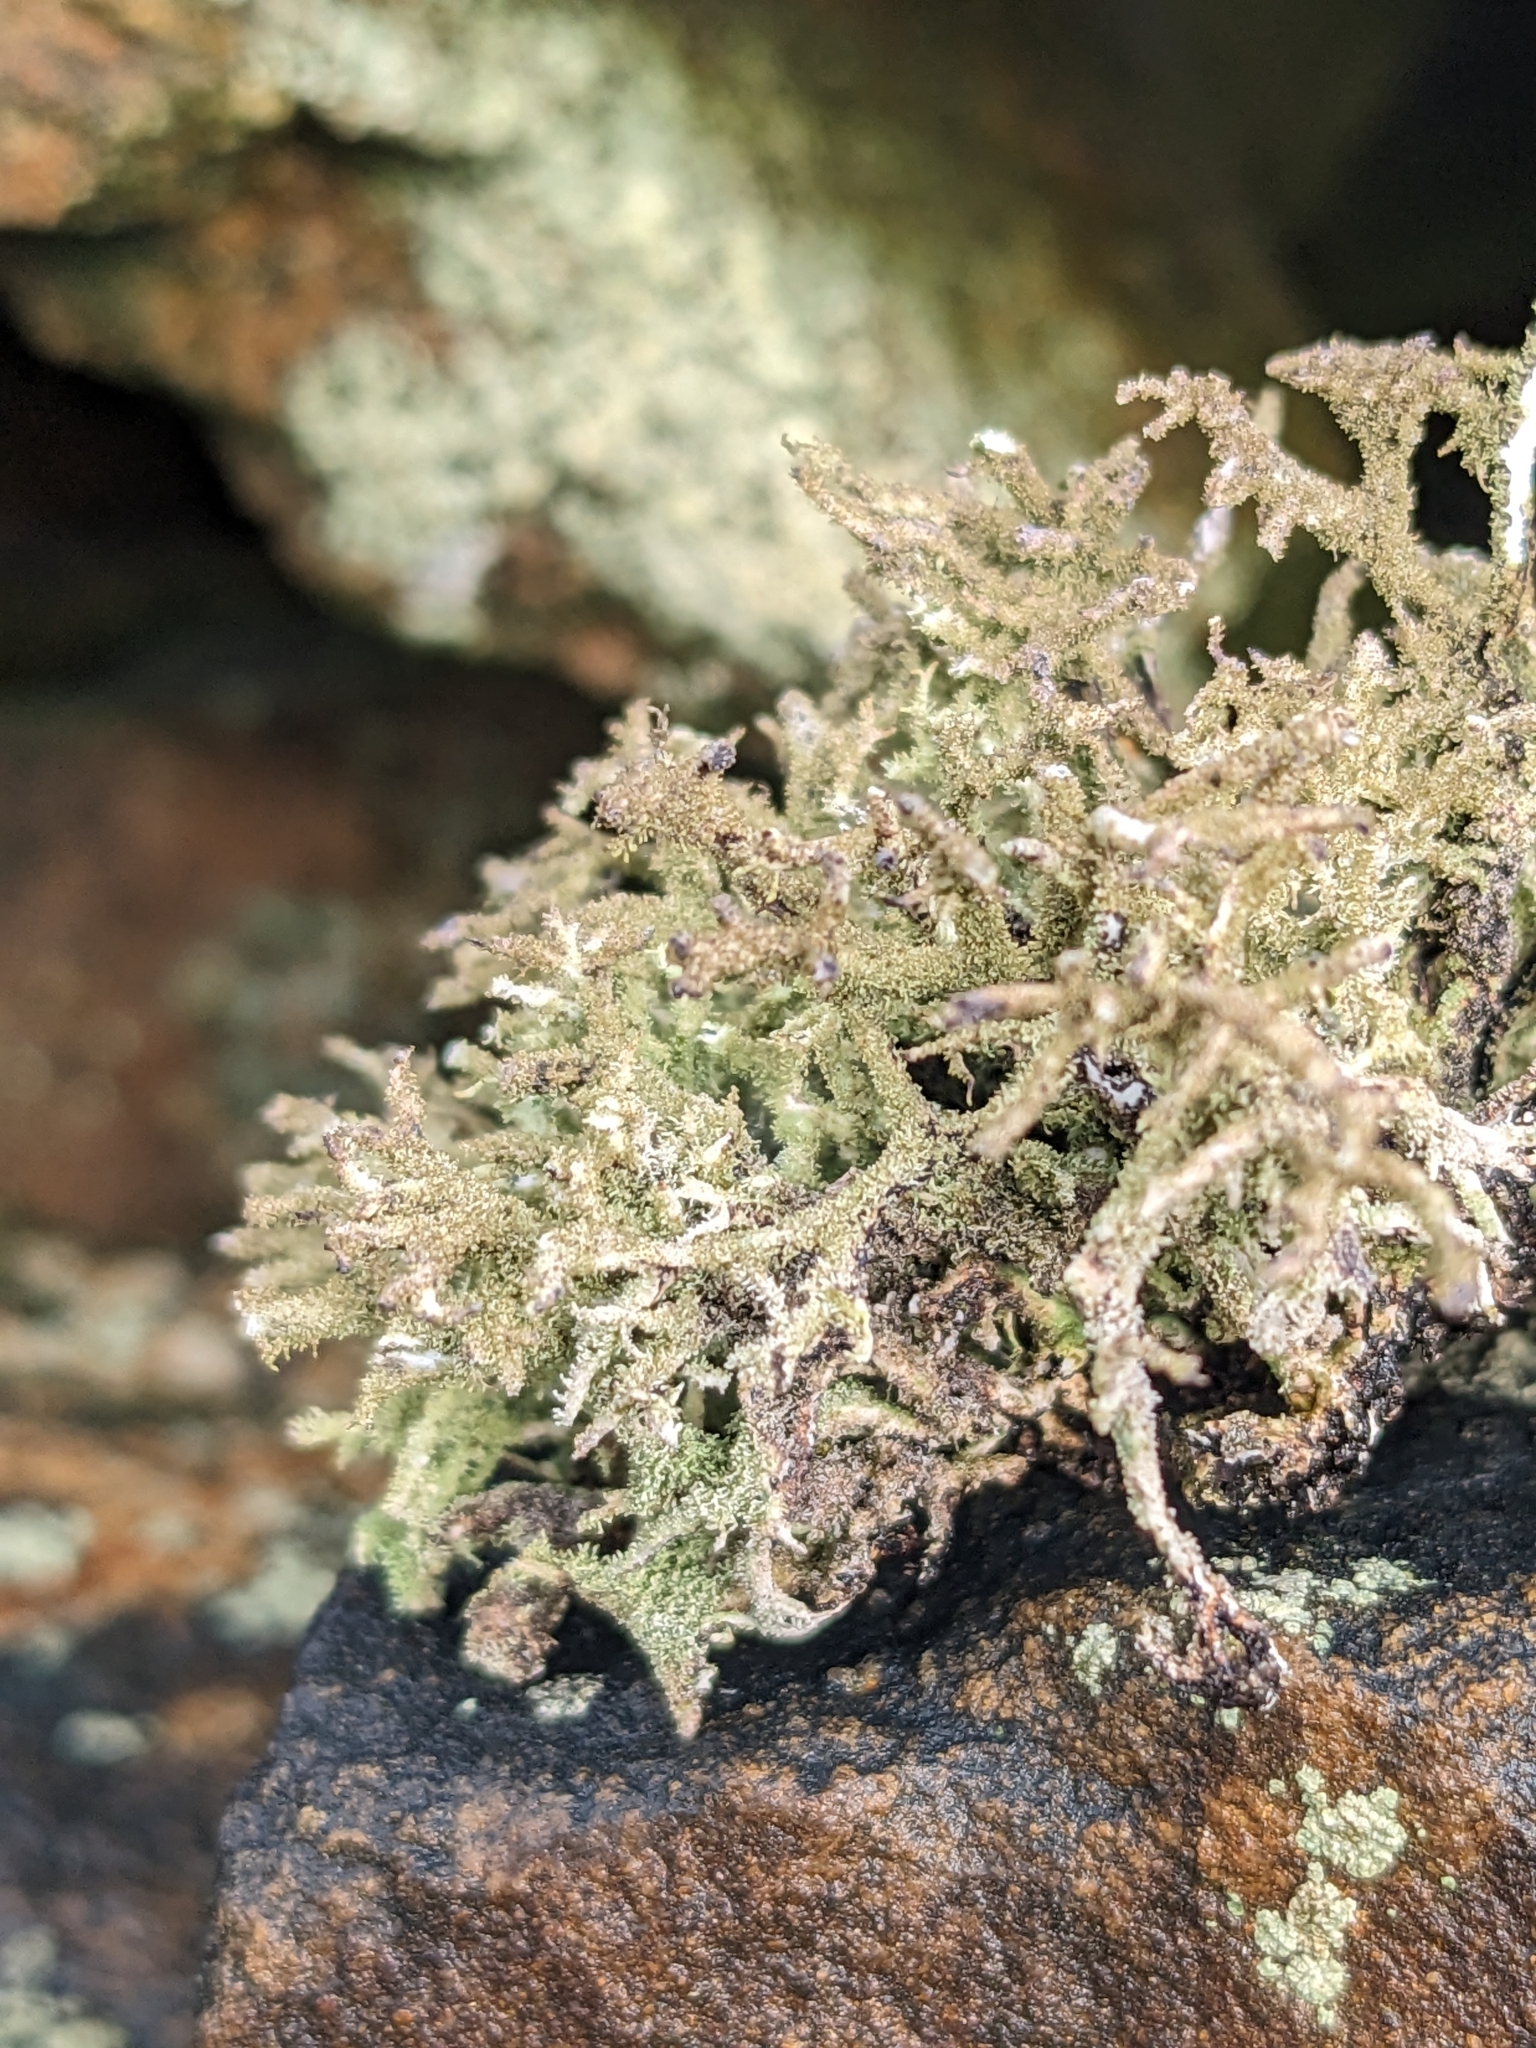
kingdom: Fungi
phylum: Ascomycota
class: Lecanoromycetes
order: Lecanorales
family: Parmeliaceae
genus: Pseudevernia
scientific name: Pseudevernia furfuracea
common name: Tree moss
